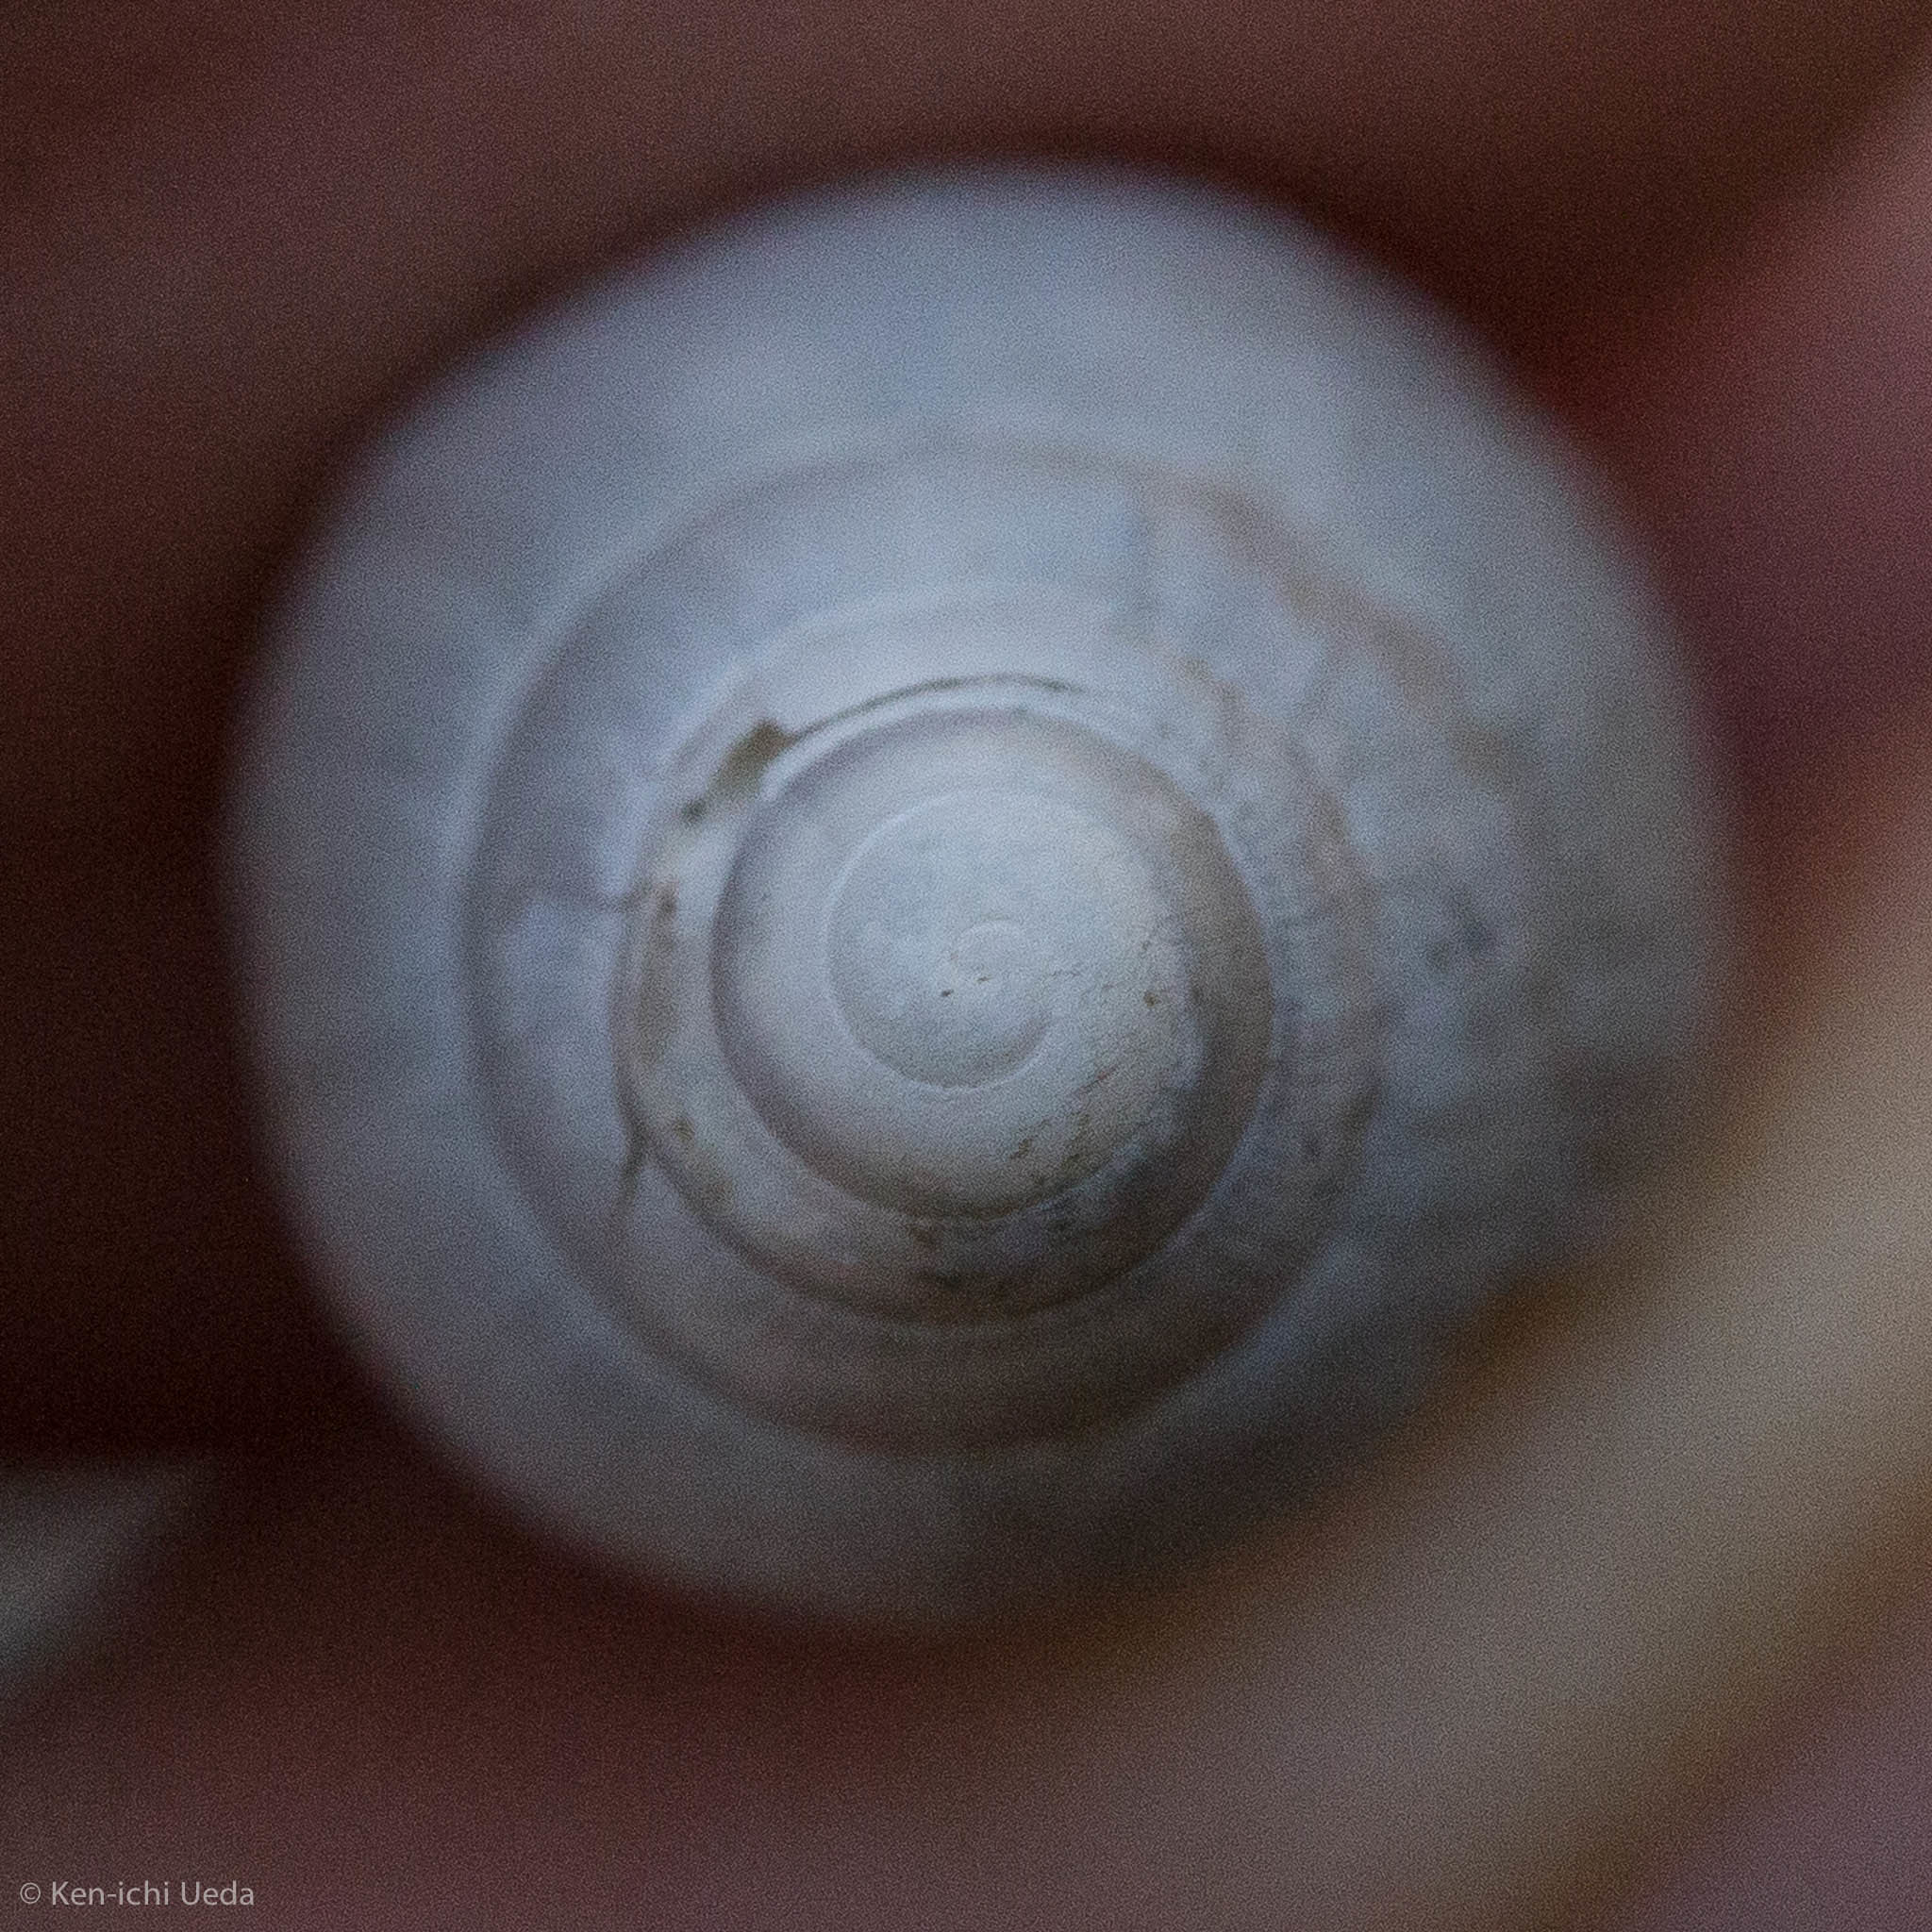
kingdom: Animalia
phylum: Mollusca
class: Gastropoda
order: Stylommatophora
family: Spiraxidae
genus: Euglandina
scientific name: Euglandina
